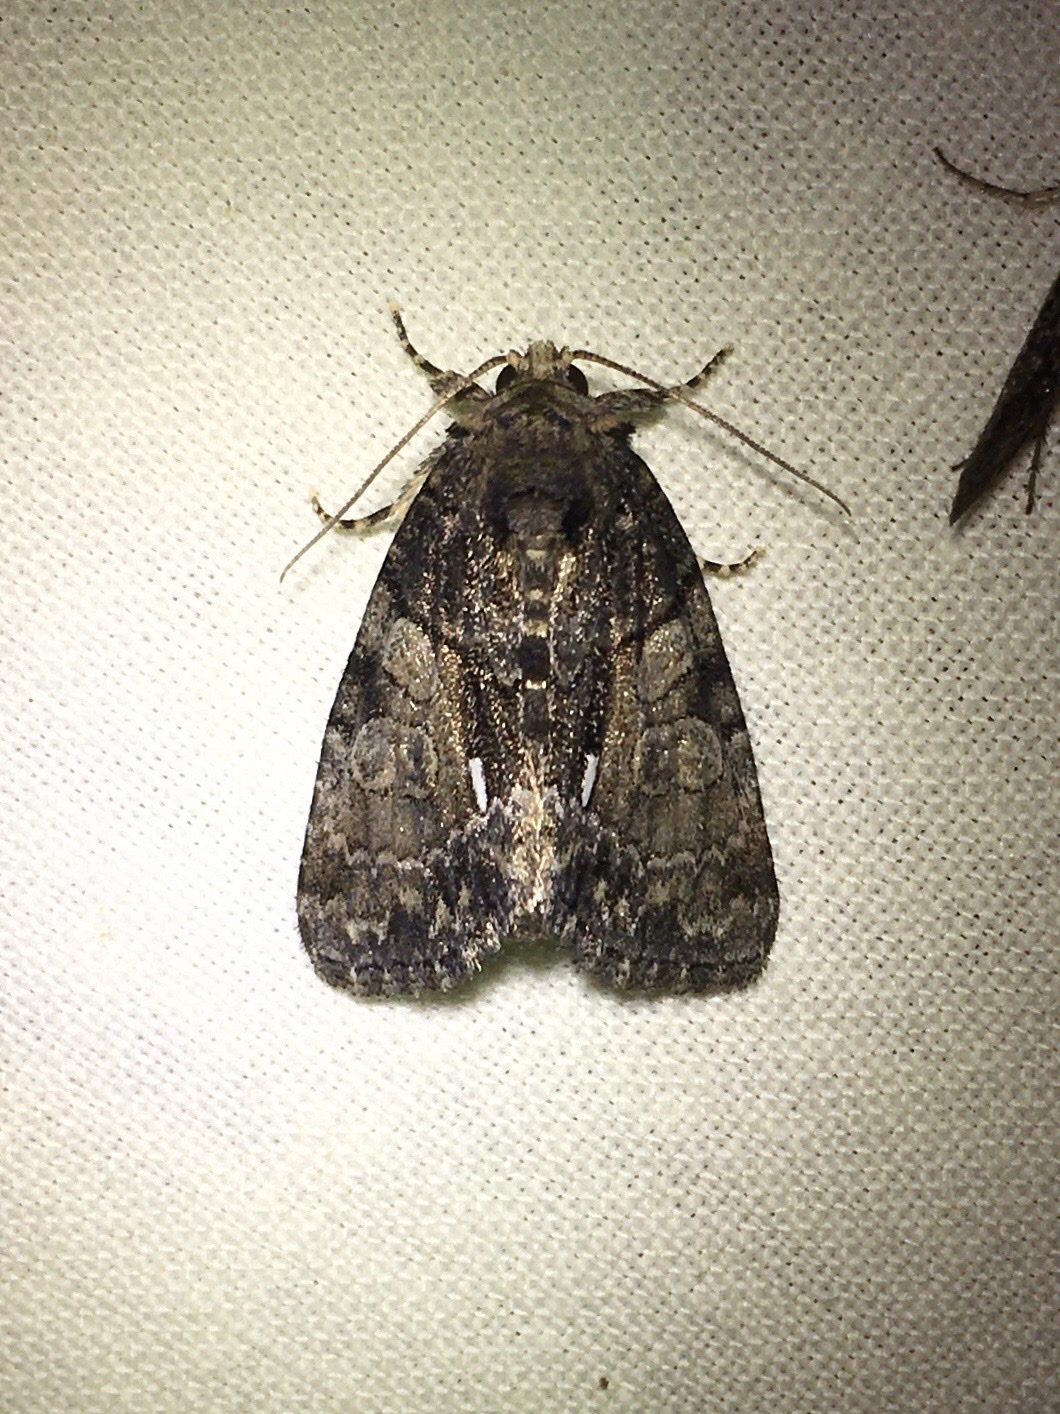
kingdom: Animalia
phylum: Arthropoda
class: Insecta
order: Lepidoptera
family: Noctuidae
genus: Chytonix
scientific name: Chytonix palliatricula
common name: Cloaked marvel
